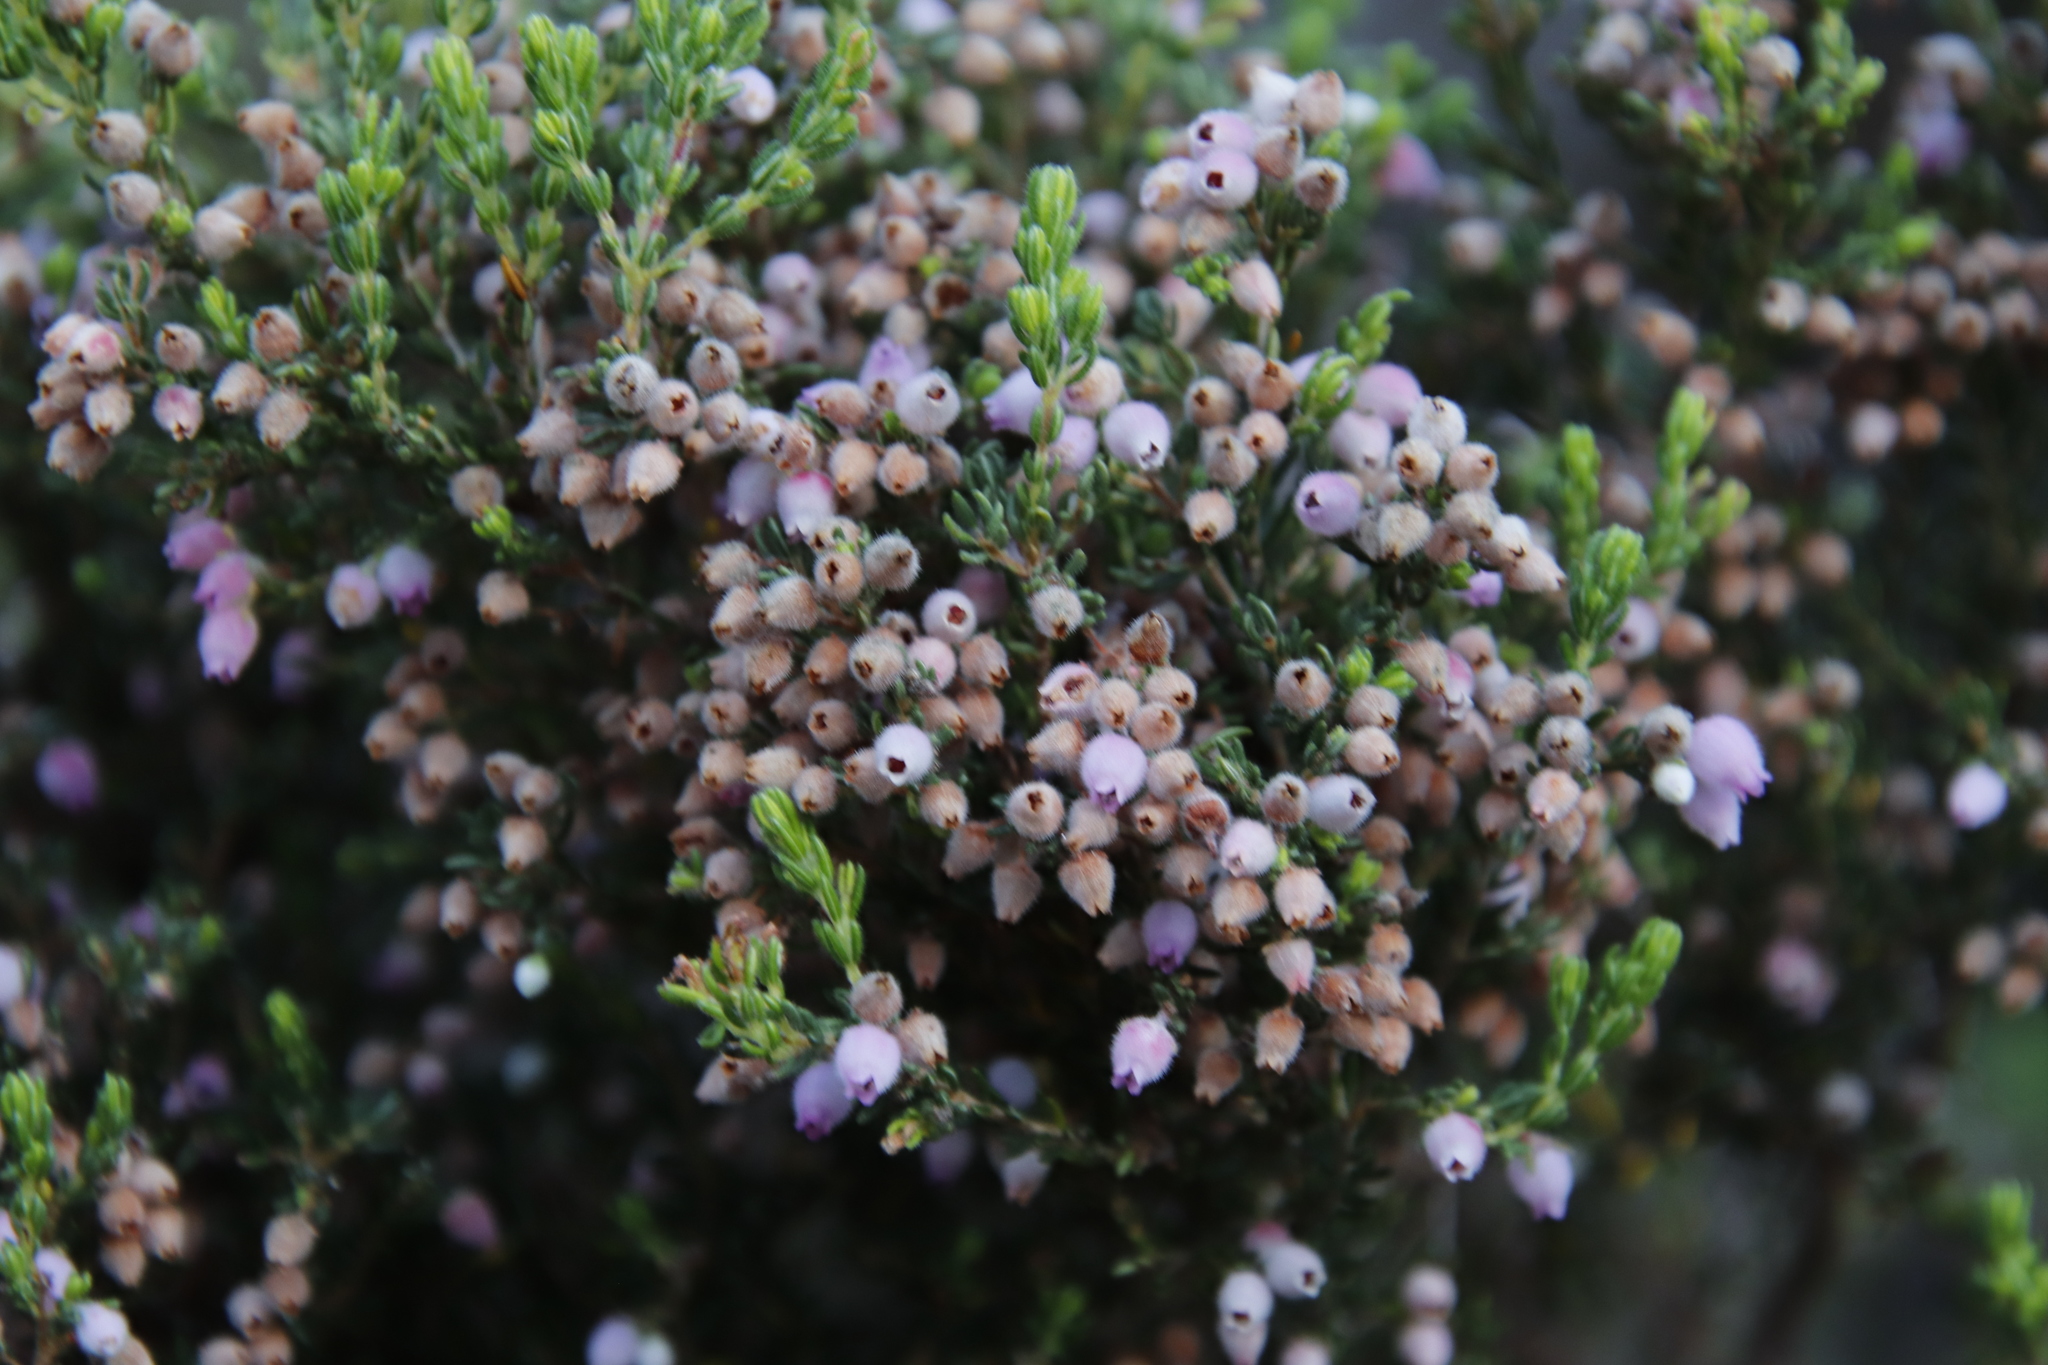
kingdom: Plantae
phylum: Tracheophyta
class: Magnoliopsida
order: Ericales
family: Ericaceae
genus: Erica
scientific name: Erica hirtiflora
